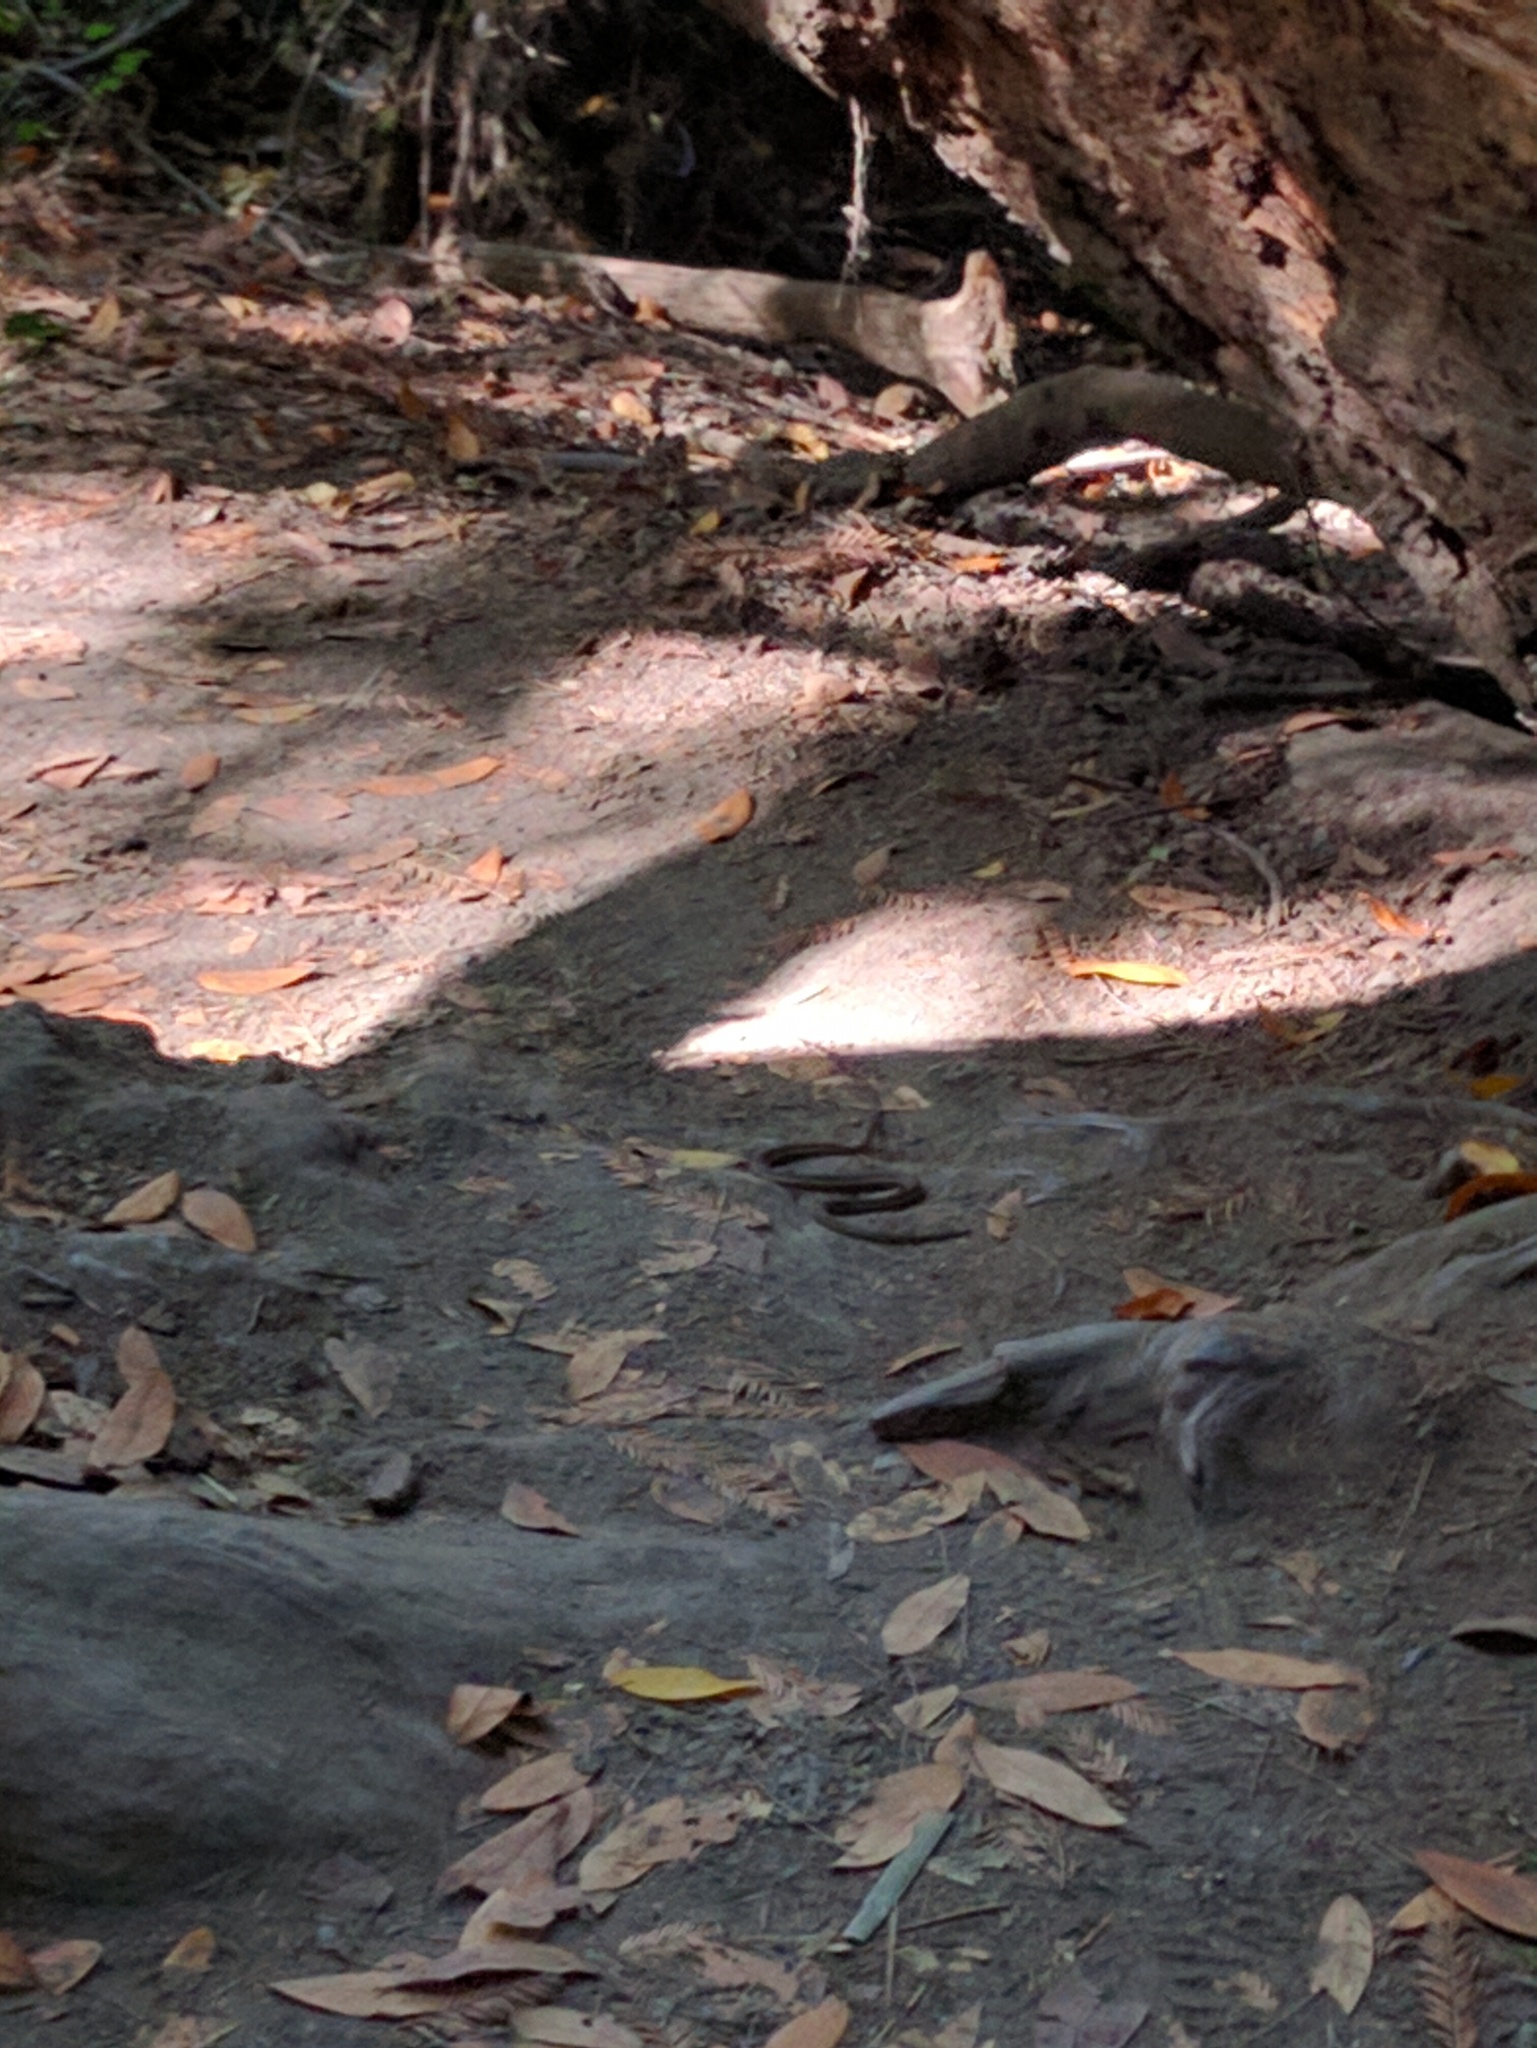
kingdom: Animalia
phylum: Chordata
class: Squamata
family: Colubridae
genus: Thamnophis
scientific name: Thamnophis
